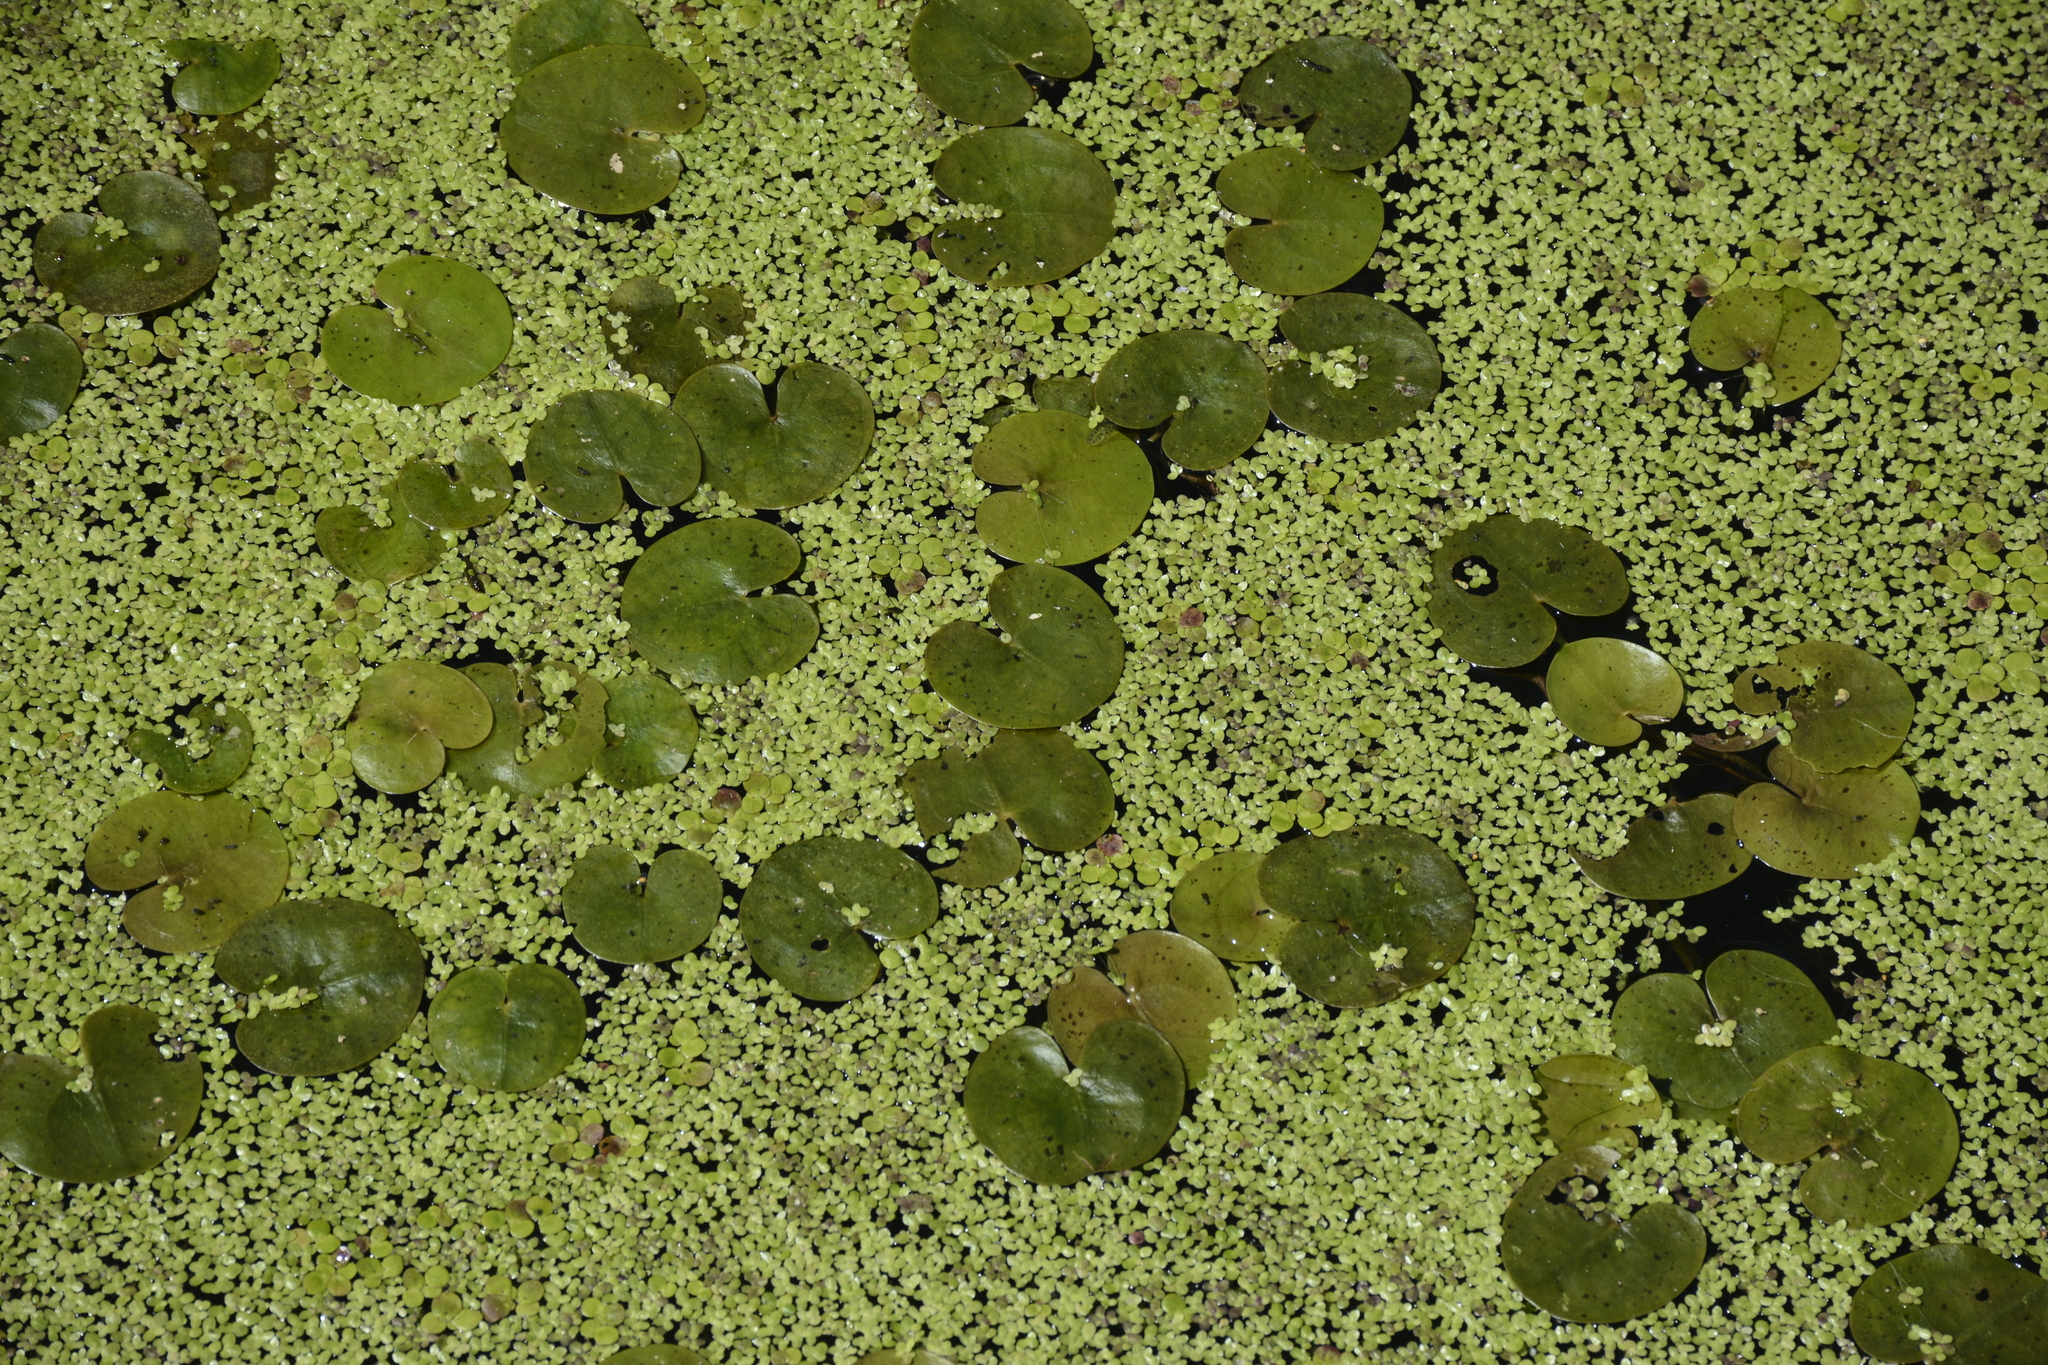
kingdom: Plantae
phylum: Tracheophyta
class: Liliopsida
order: Alismatales
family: Hydrocharitaceae
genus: Hydrocharis
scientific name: Hydrocharis morsus-ranae
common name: Frogbit
